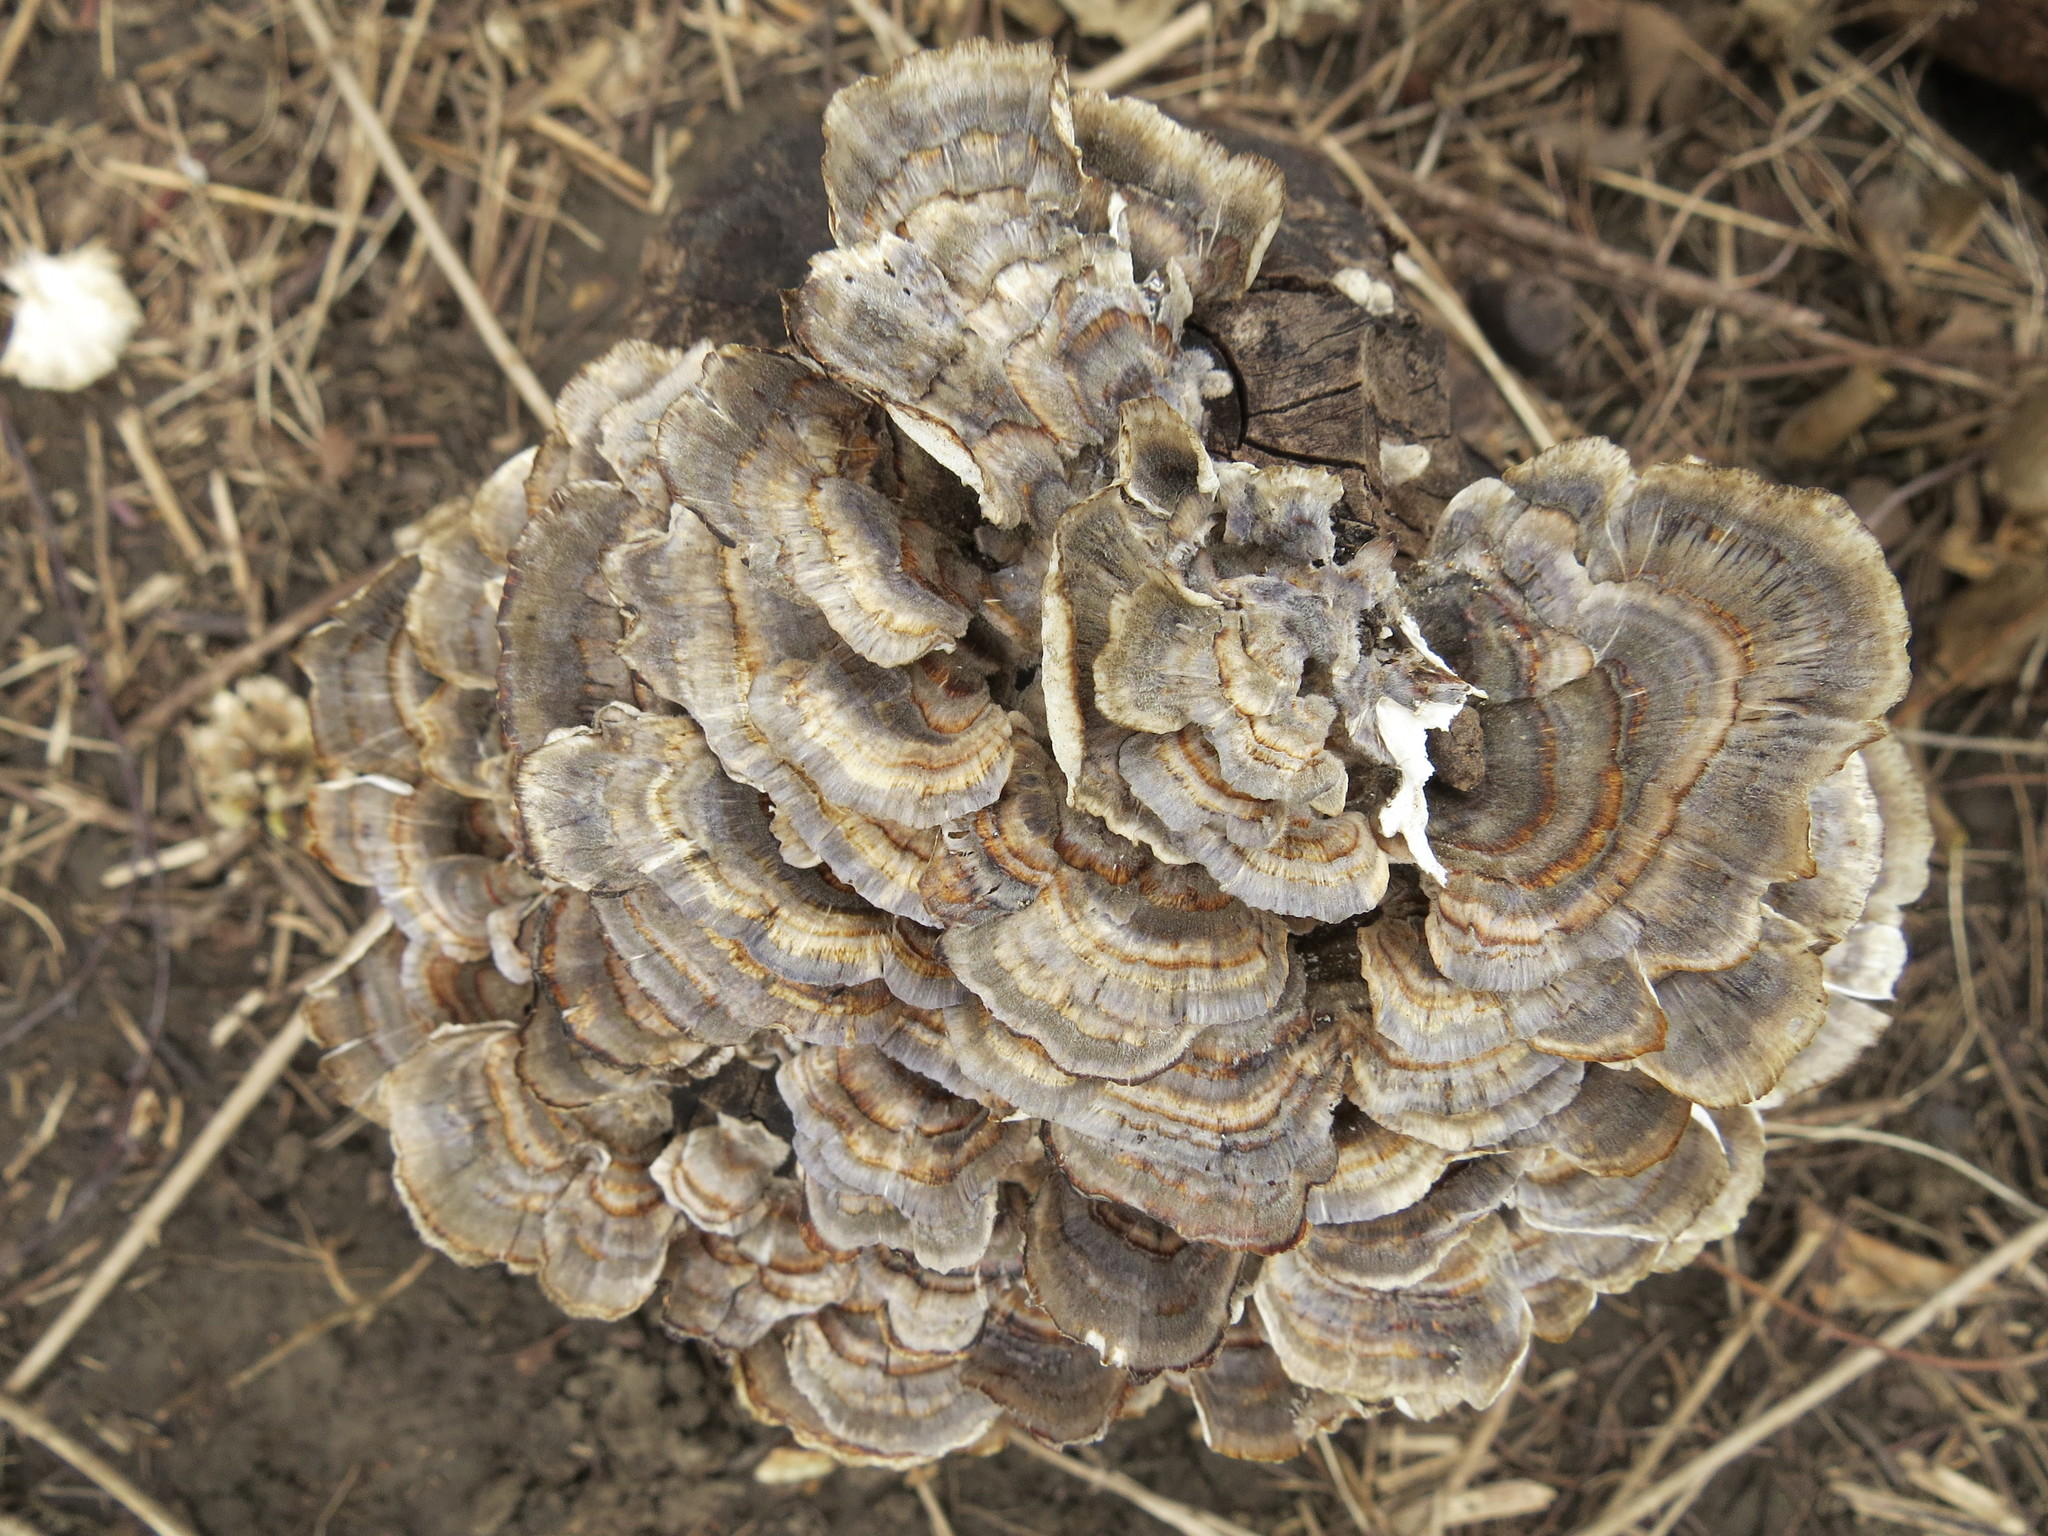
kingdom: Fungi
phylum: Basidiomycota
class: Agaricomycetes
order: Polyporales
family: Polyporaceae
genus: Trametes
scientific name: Trametes versicolor
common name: Turkeytail
